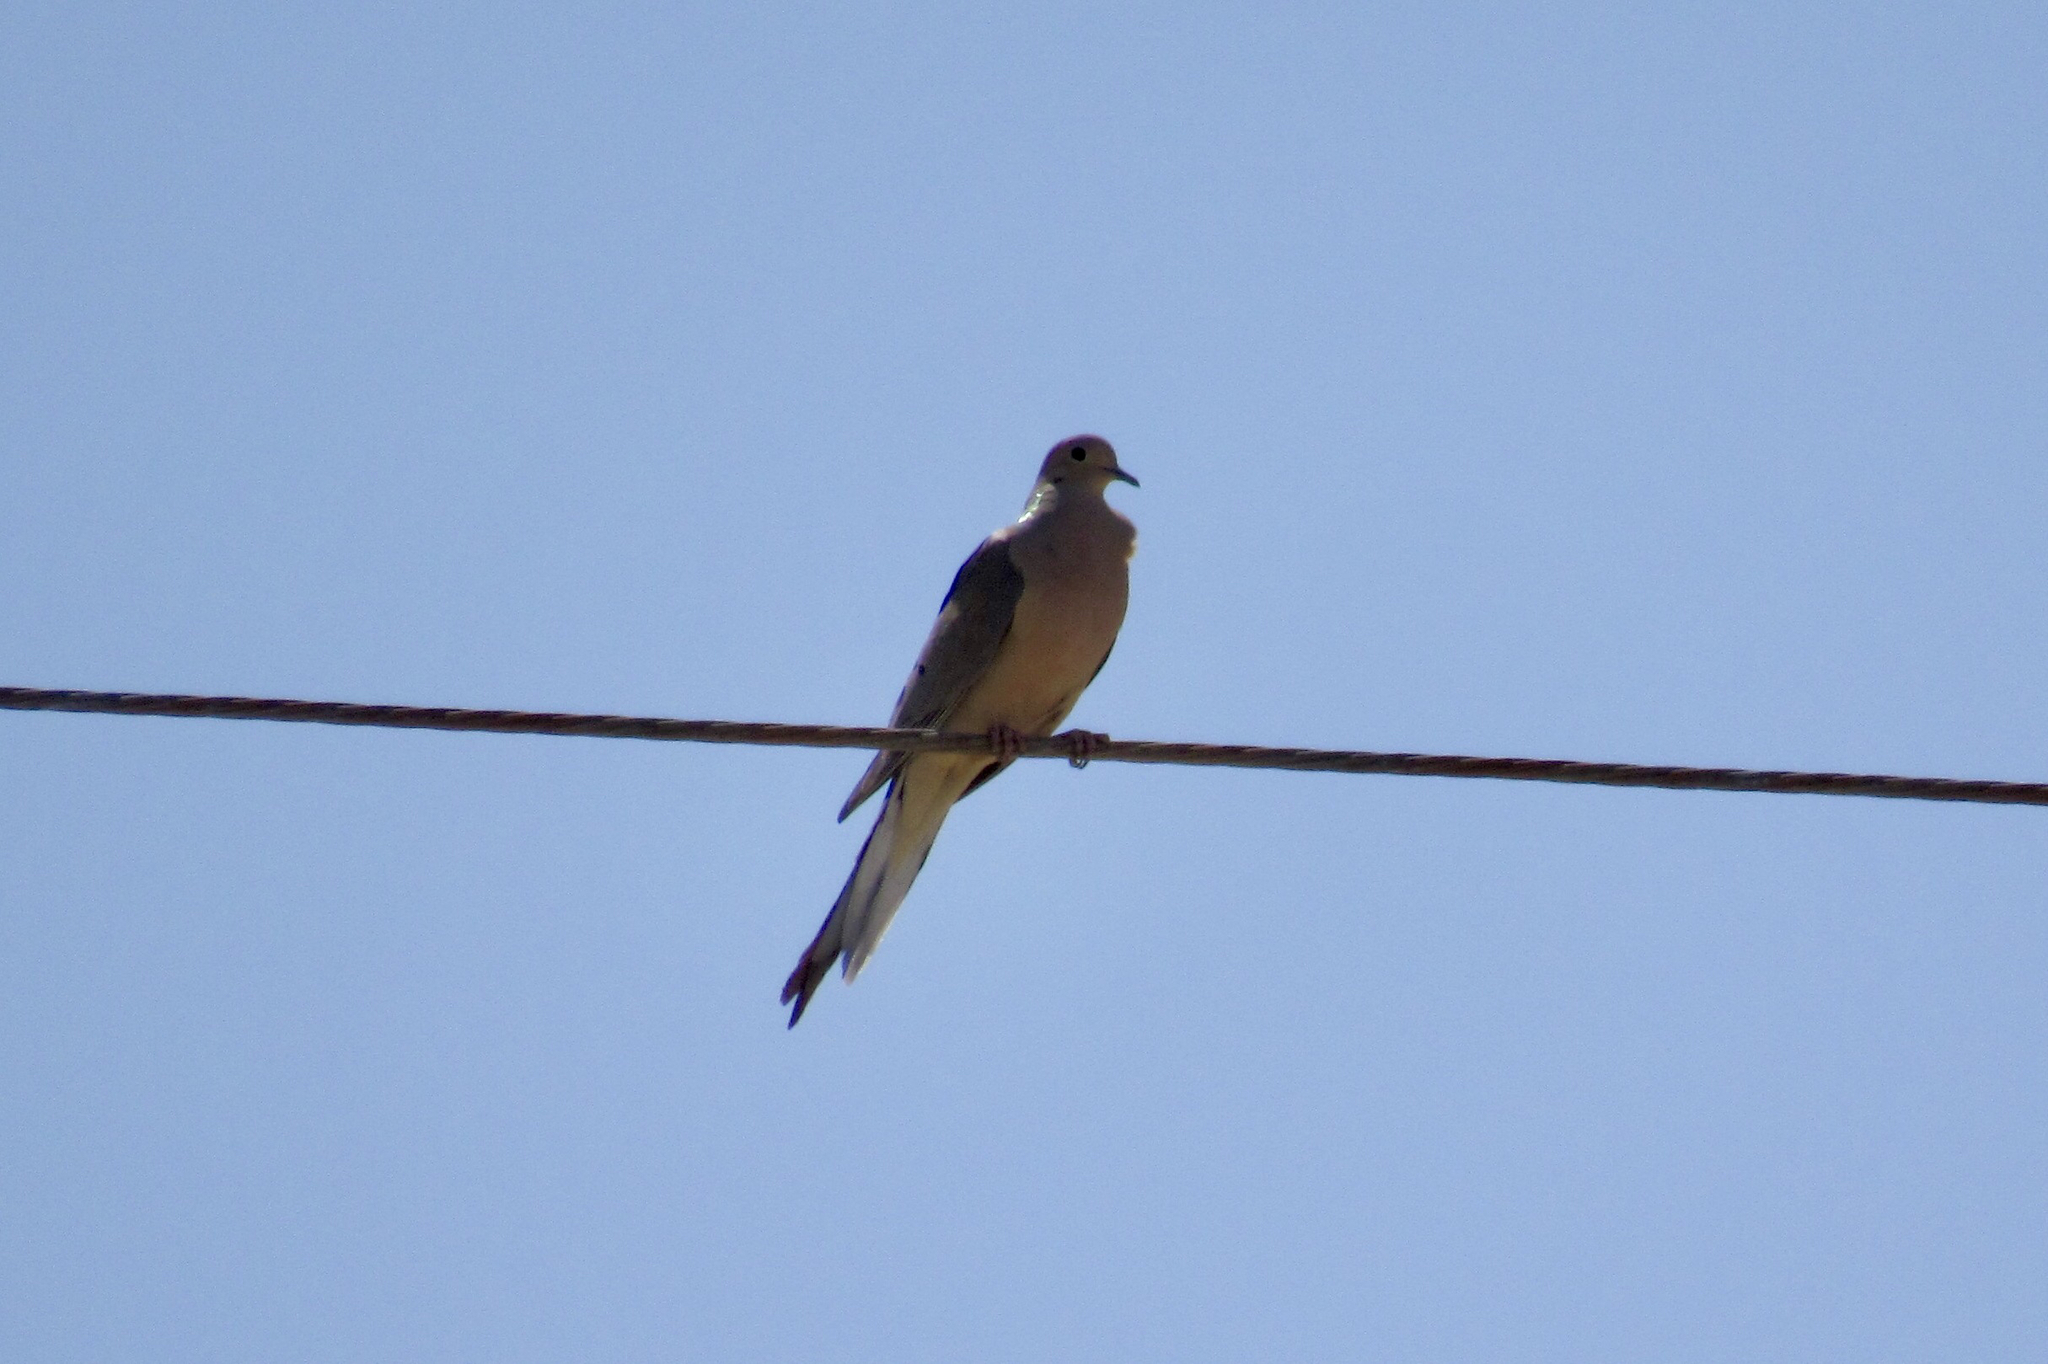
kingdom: Animalia
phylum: Chordata
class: Aves
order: Columbiformes
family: Columbidae
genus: Zenaida
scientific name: Zenaida macroura
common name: Mourning dove
